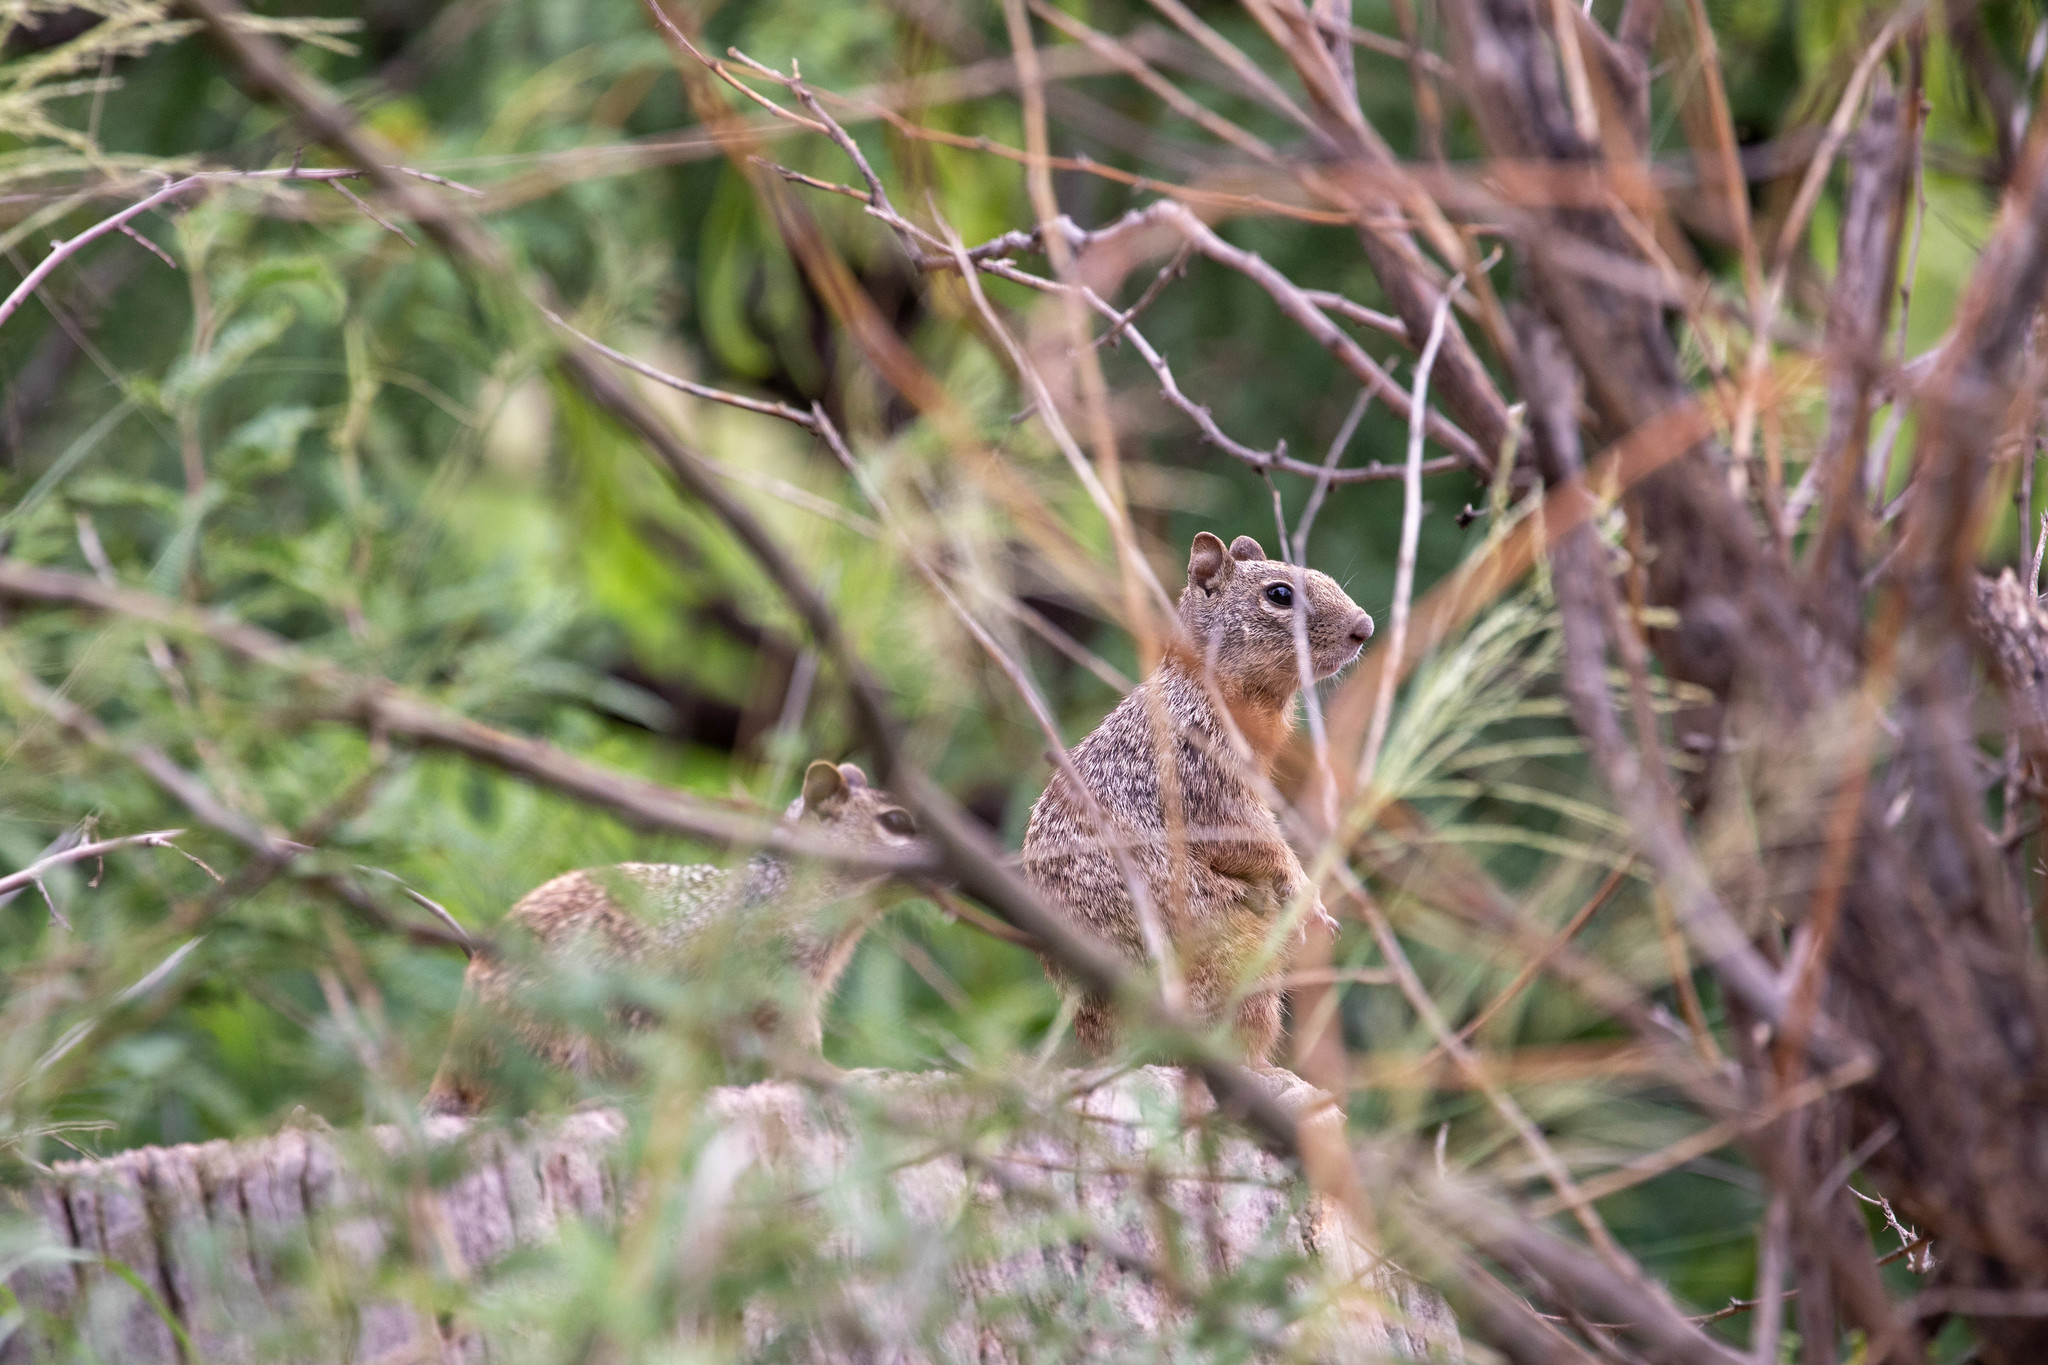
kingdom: Animalia
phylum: Chordata
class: Mammalia
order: Rodentia
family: Sciuridae
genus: Otospermophilus
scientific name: Otospermophilus variegatus
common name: Rock squirrel
